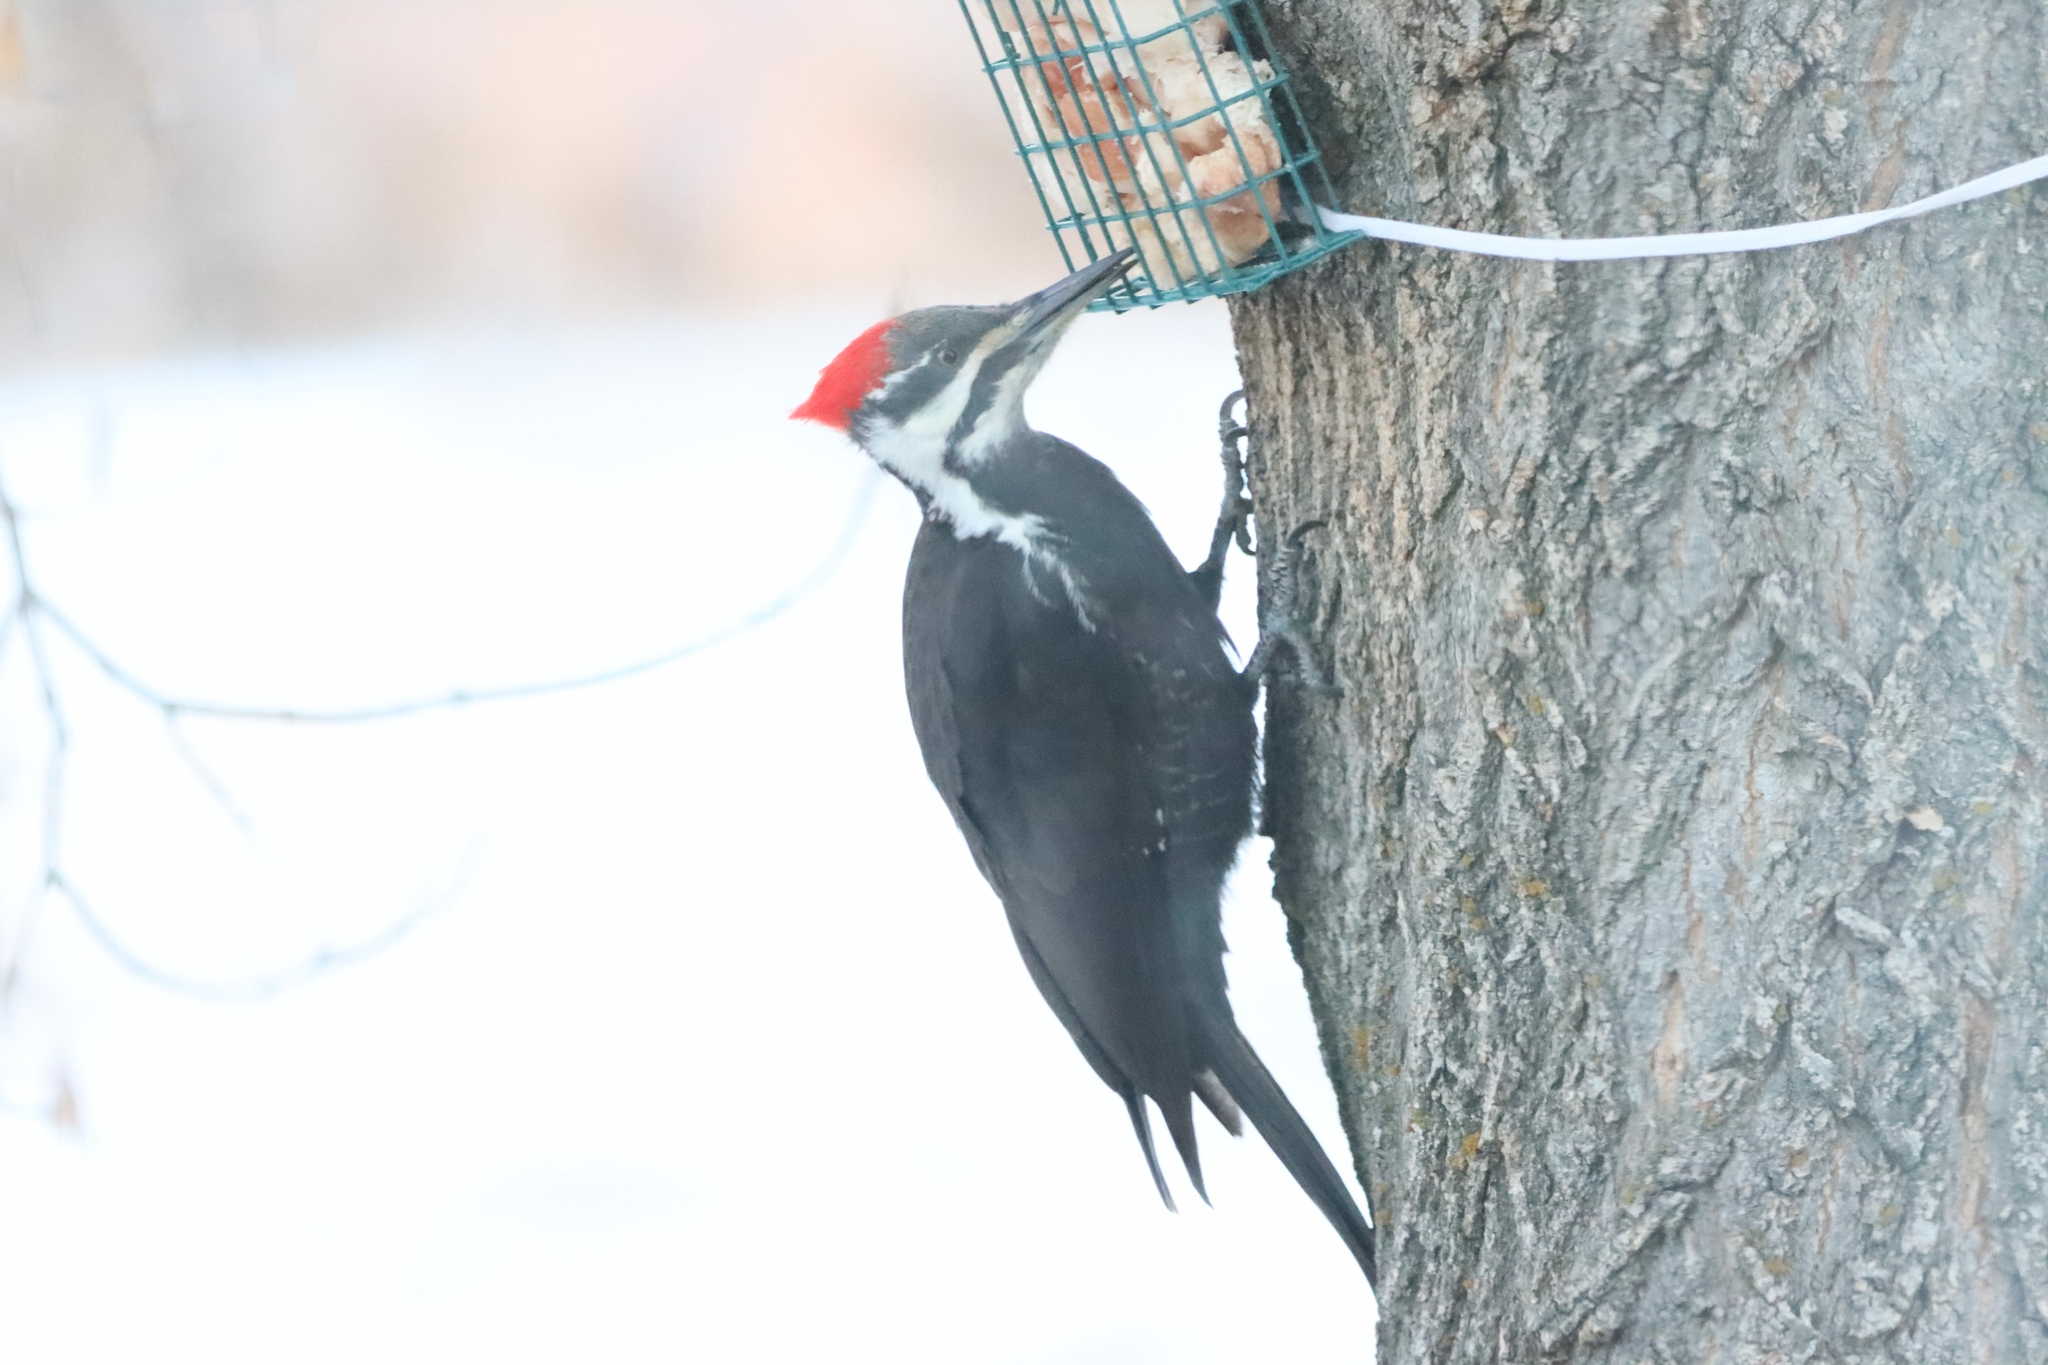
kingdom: Animalia
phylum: Chordata
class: Aves
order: Piciformes
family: Picidae
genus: Dryocopus
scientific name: Dryocopus pileatus
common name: Pileated woodpecker
